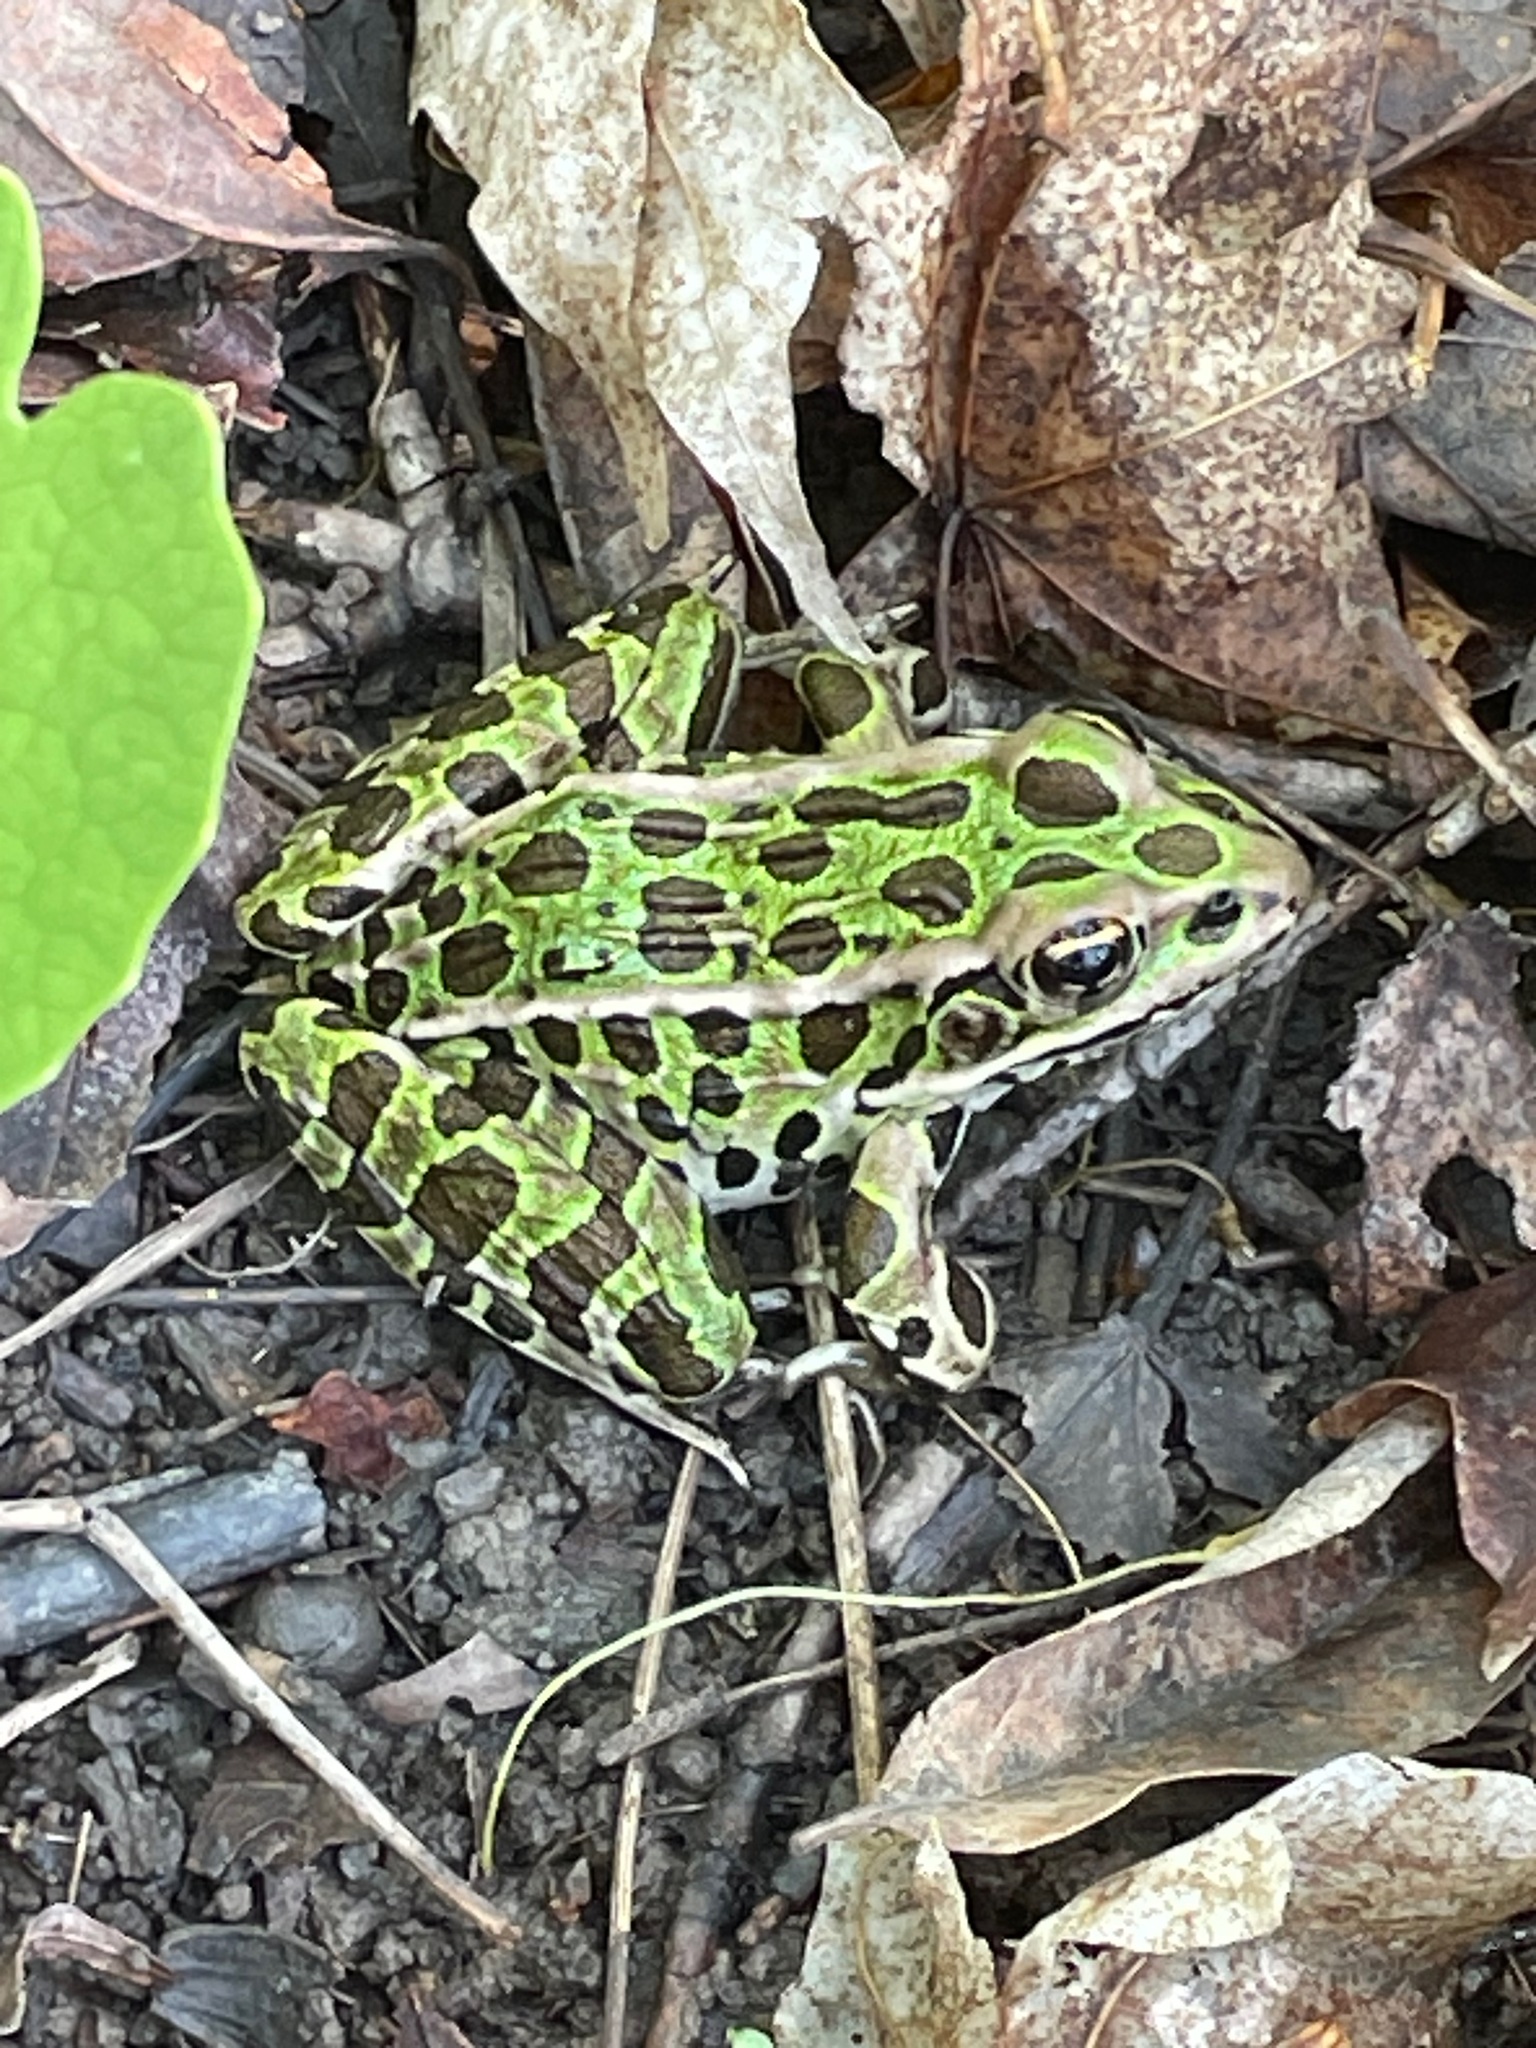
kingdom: Animalia
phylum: Chordata
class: Amphibia
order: Anura
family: Ranidae
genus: Lithobates
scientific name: Lithobates pipiens
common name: Northern leopard frog
